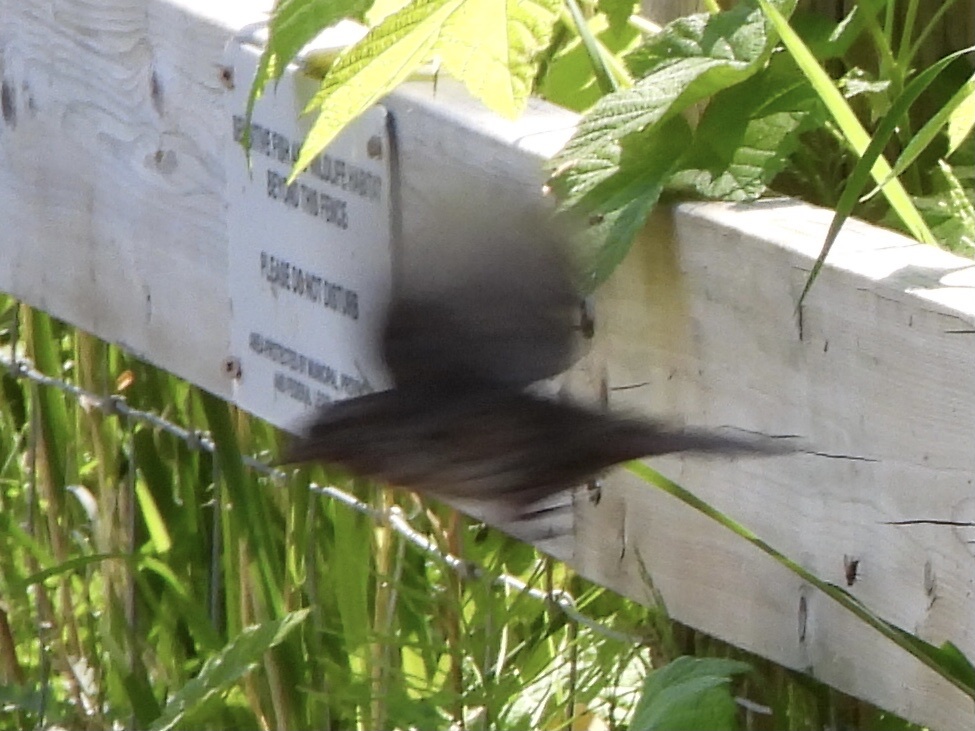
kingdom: Animalia
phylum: Chordata
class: Aves
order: Passeriformes
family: Passerellidae
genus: Melospiza
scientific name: Melospiza melodia
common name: Song sparrow
